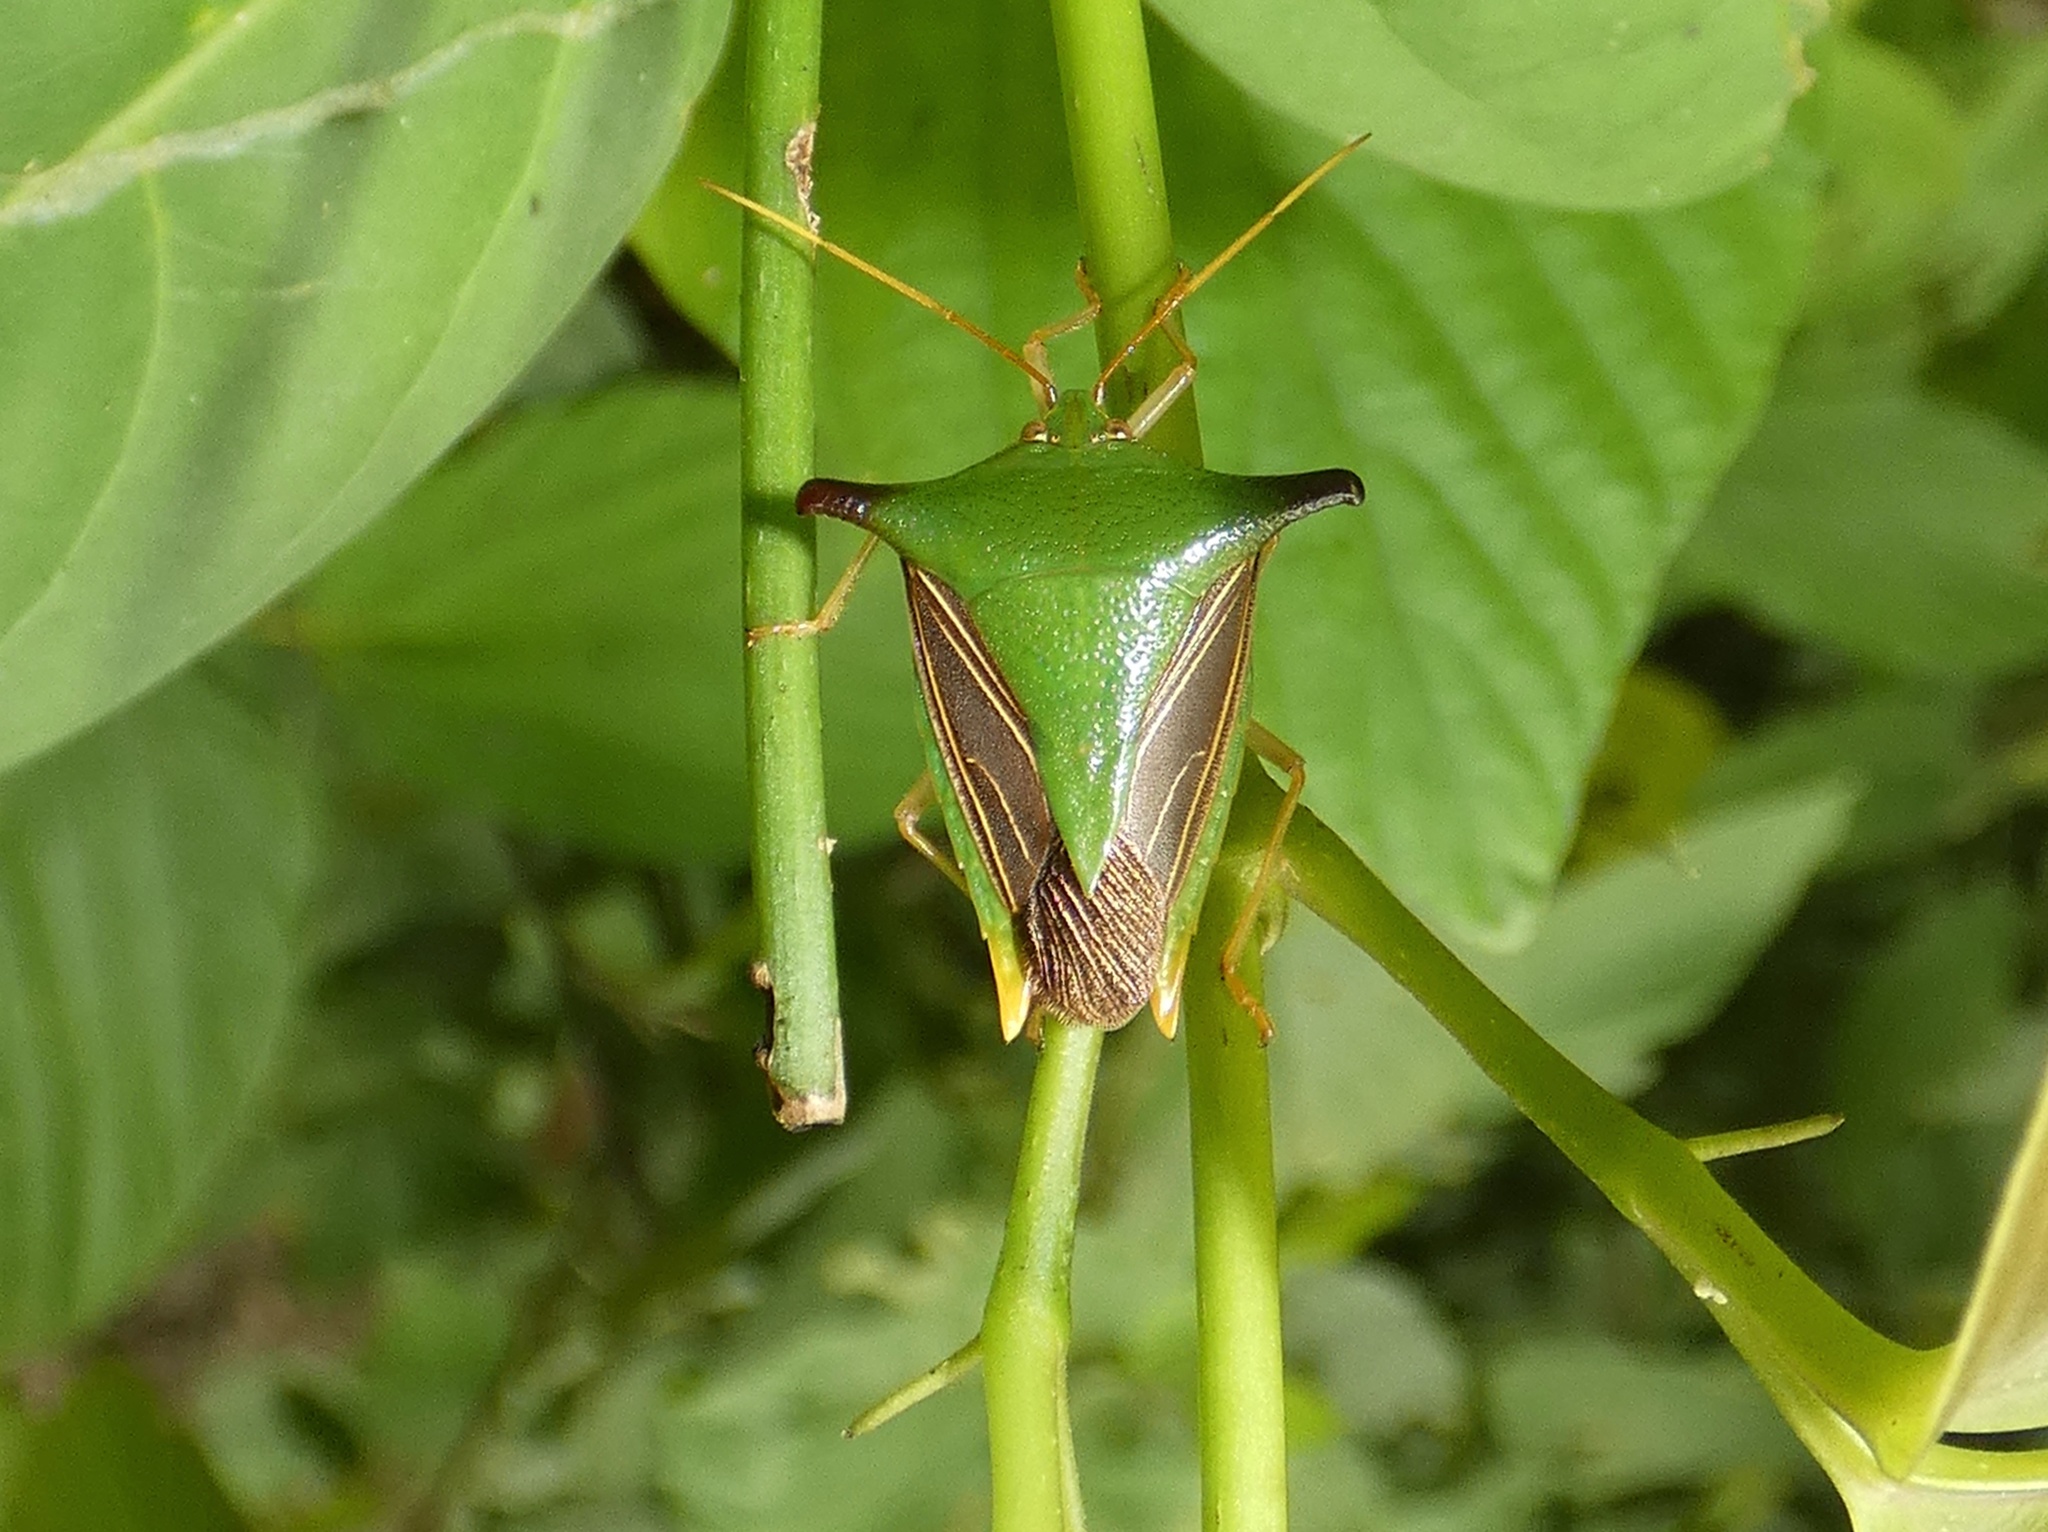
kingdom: Animalia
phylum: Arthropoda
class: Insecta
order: Hemiptera
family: Pentatomidae
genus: Edessa
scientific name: Edessa
